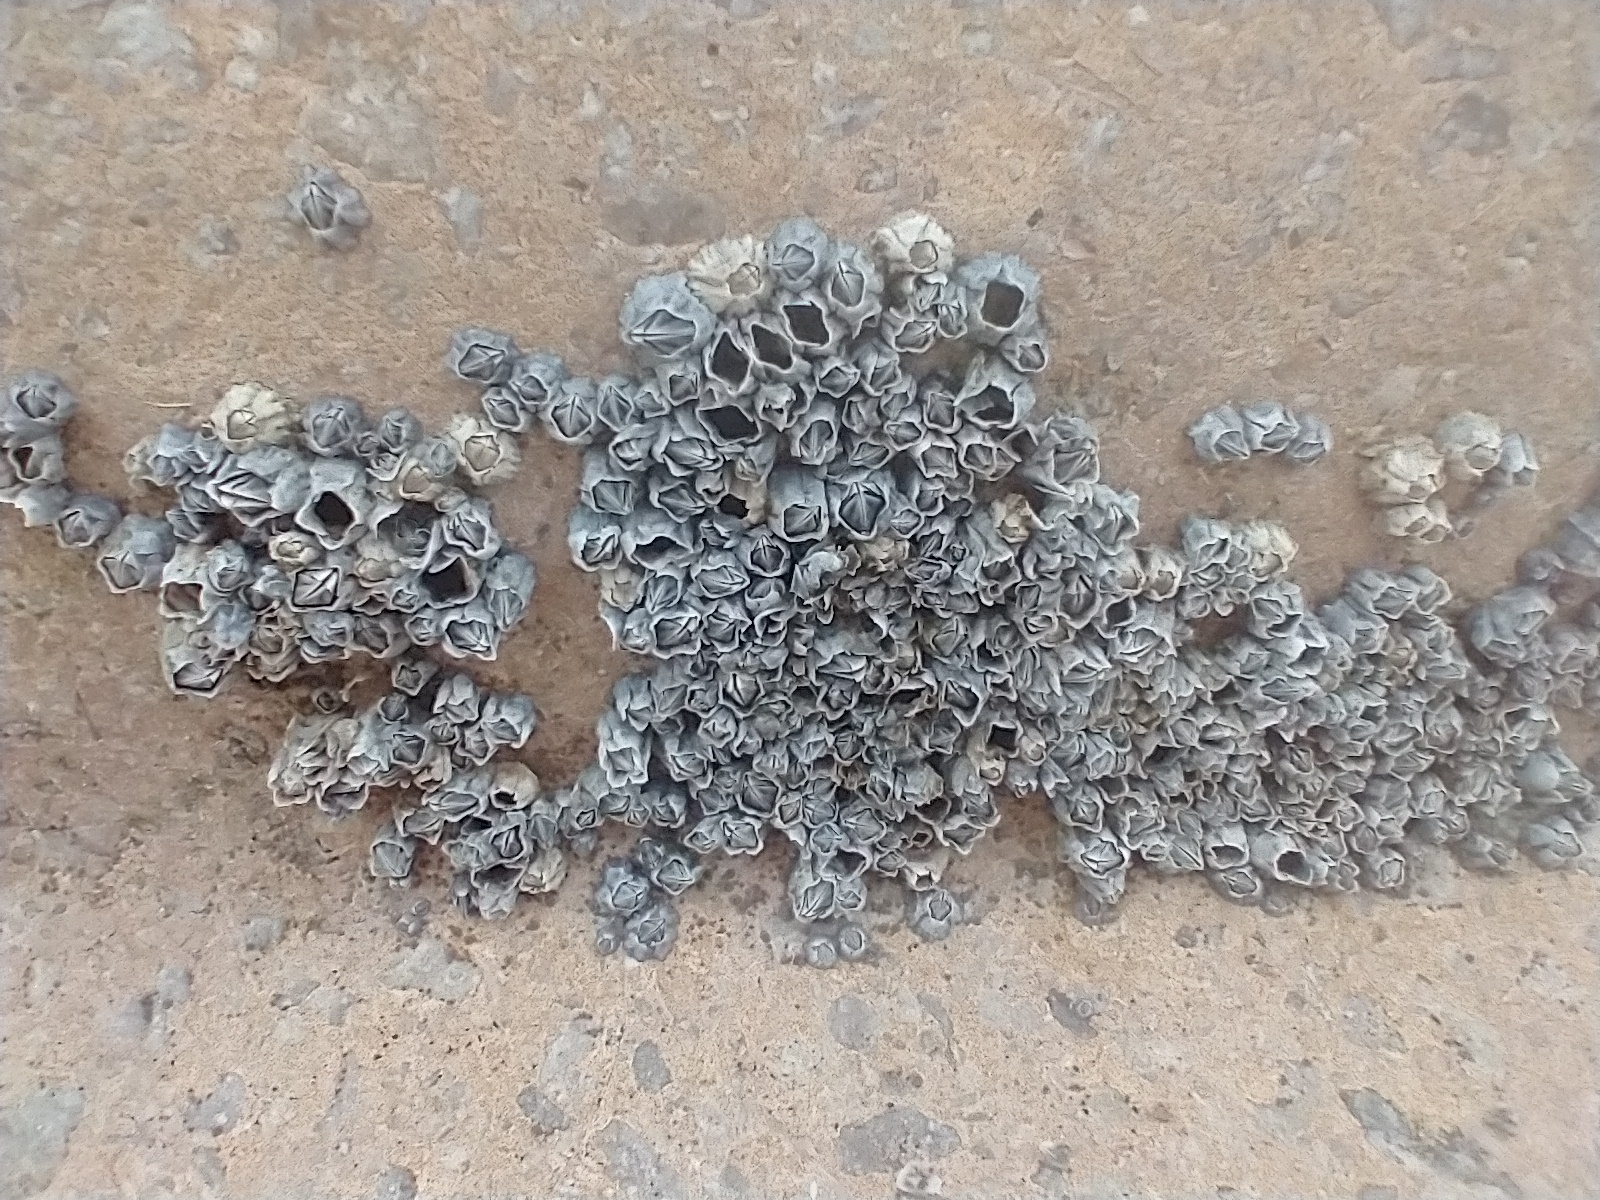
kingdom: Animalia
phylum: Arthropoda
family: Elminiidae
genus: Austrominius
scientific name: Austrominius modestus
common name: Australasian barnacle
